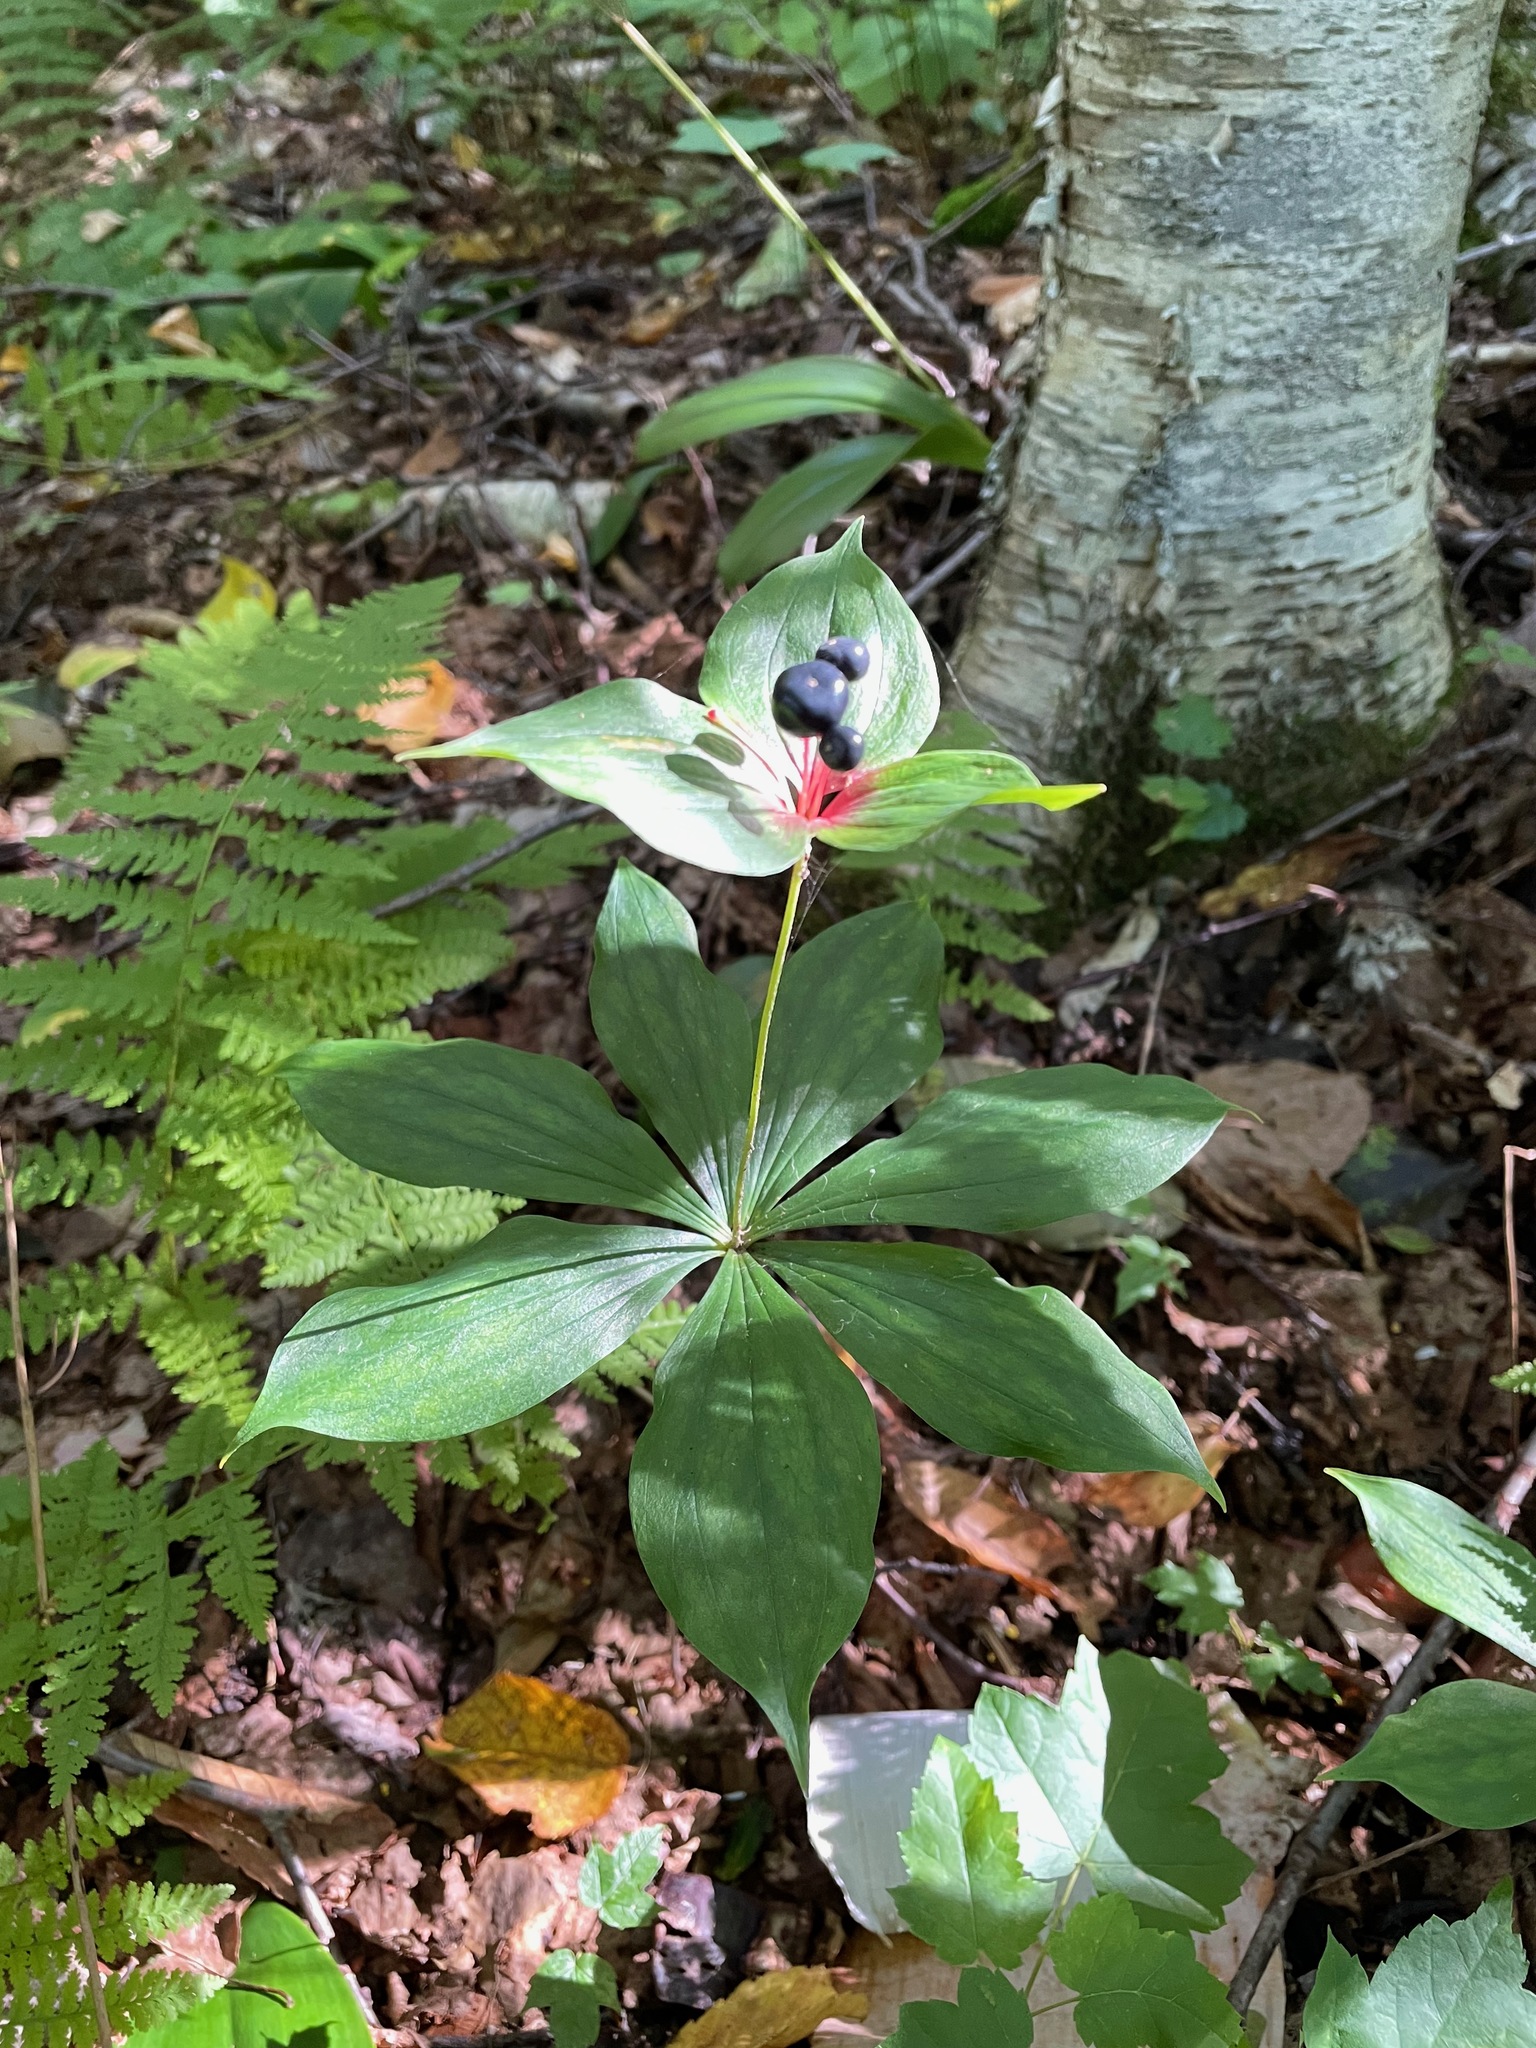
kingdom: Plantae
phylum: Tracheophyta
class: Liliopsida
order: Liliales
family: Liliaceae
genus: Medeola
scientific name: Medeola virginiana
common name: Indian cucumber-root
